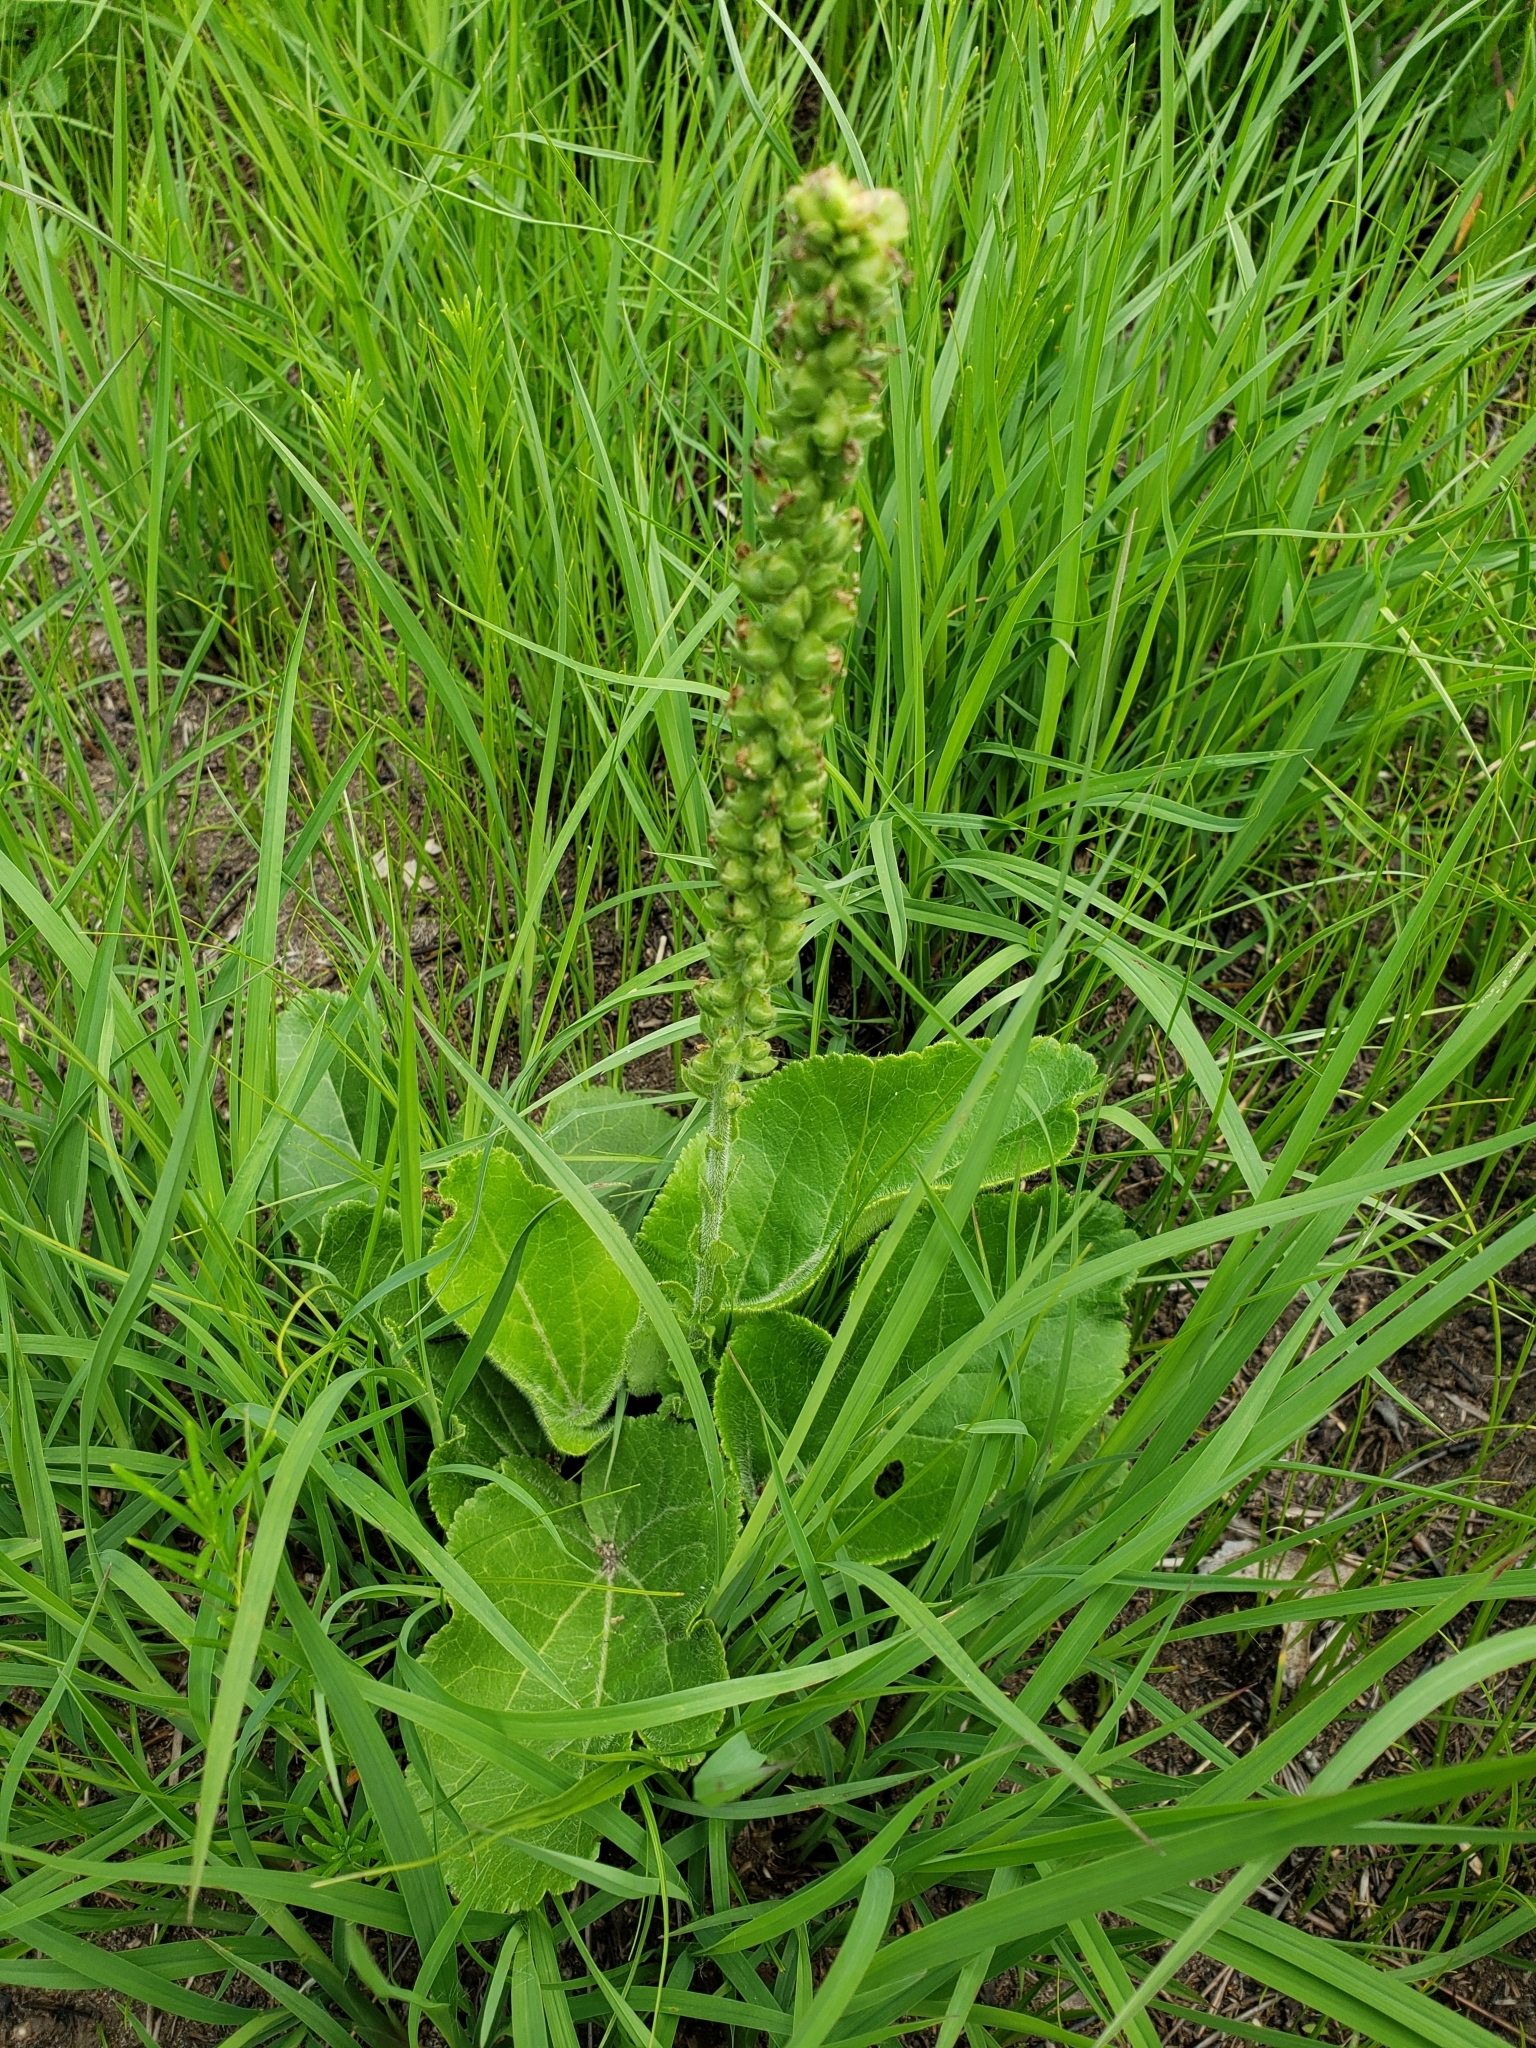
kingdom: Plantae
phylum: Tracheophyta
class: Magnoliopsida
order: Lamiales
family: Plantaginaceae
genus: Synthyris
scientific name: Synthyris bullii
